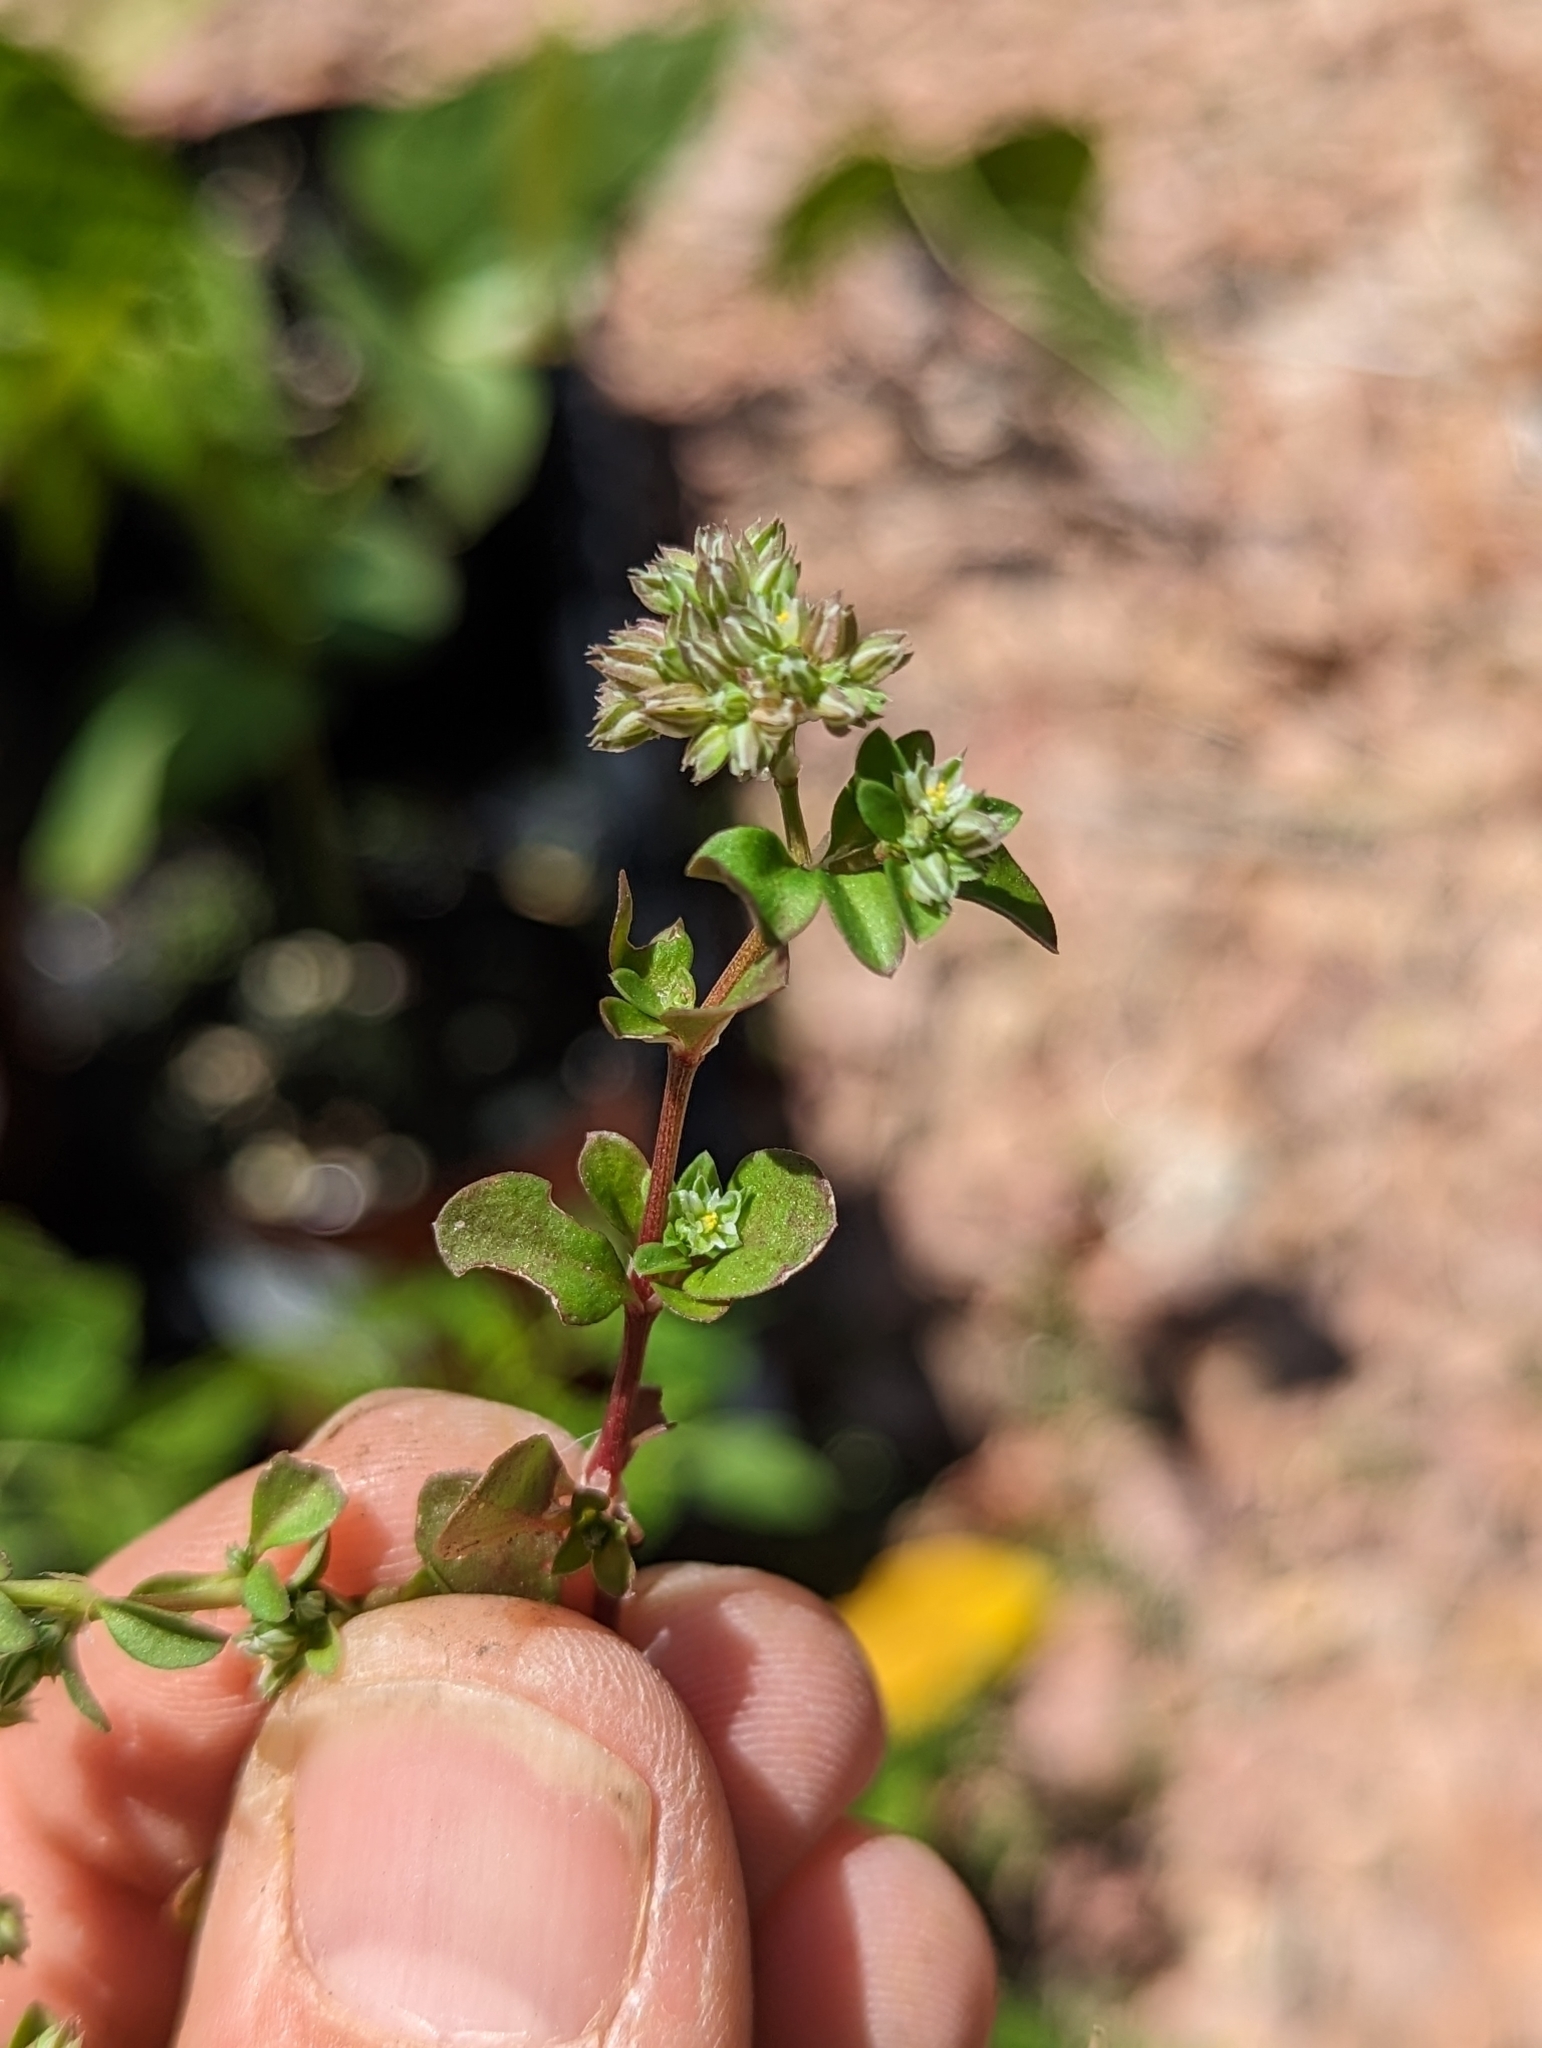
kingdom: Plantae
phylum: Tracheophyta
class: Magnoliopsida
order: Caryophyllales
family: Caryophyllaceae
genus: Polycarpon
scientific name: Polycarpon tetraphyllum
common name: Four-leaved all-seed
